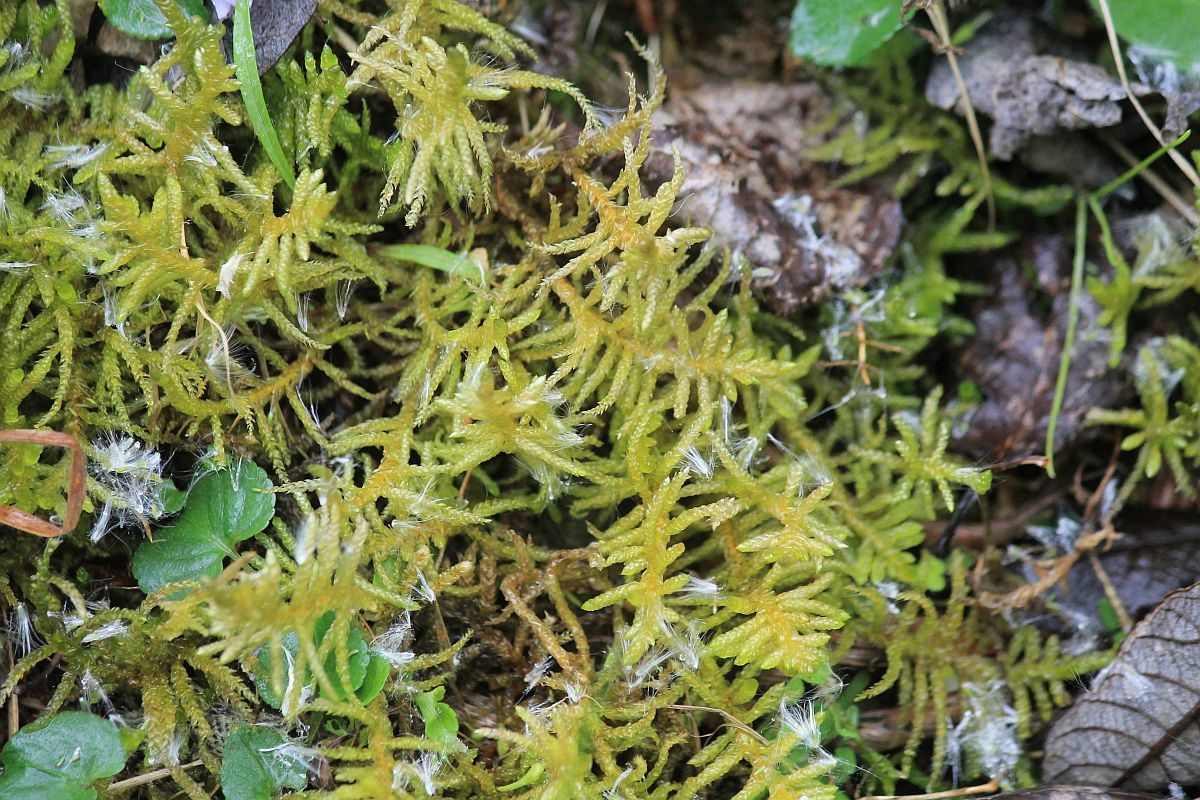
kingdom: Plantae
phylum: Bryophyta
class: Bryopsida
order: Hypnales
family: Brachytheciaceae
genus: Pseudoscleropodium
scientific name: Pseudoscleropodium purum
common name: Neat feather-moss
